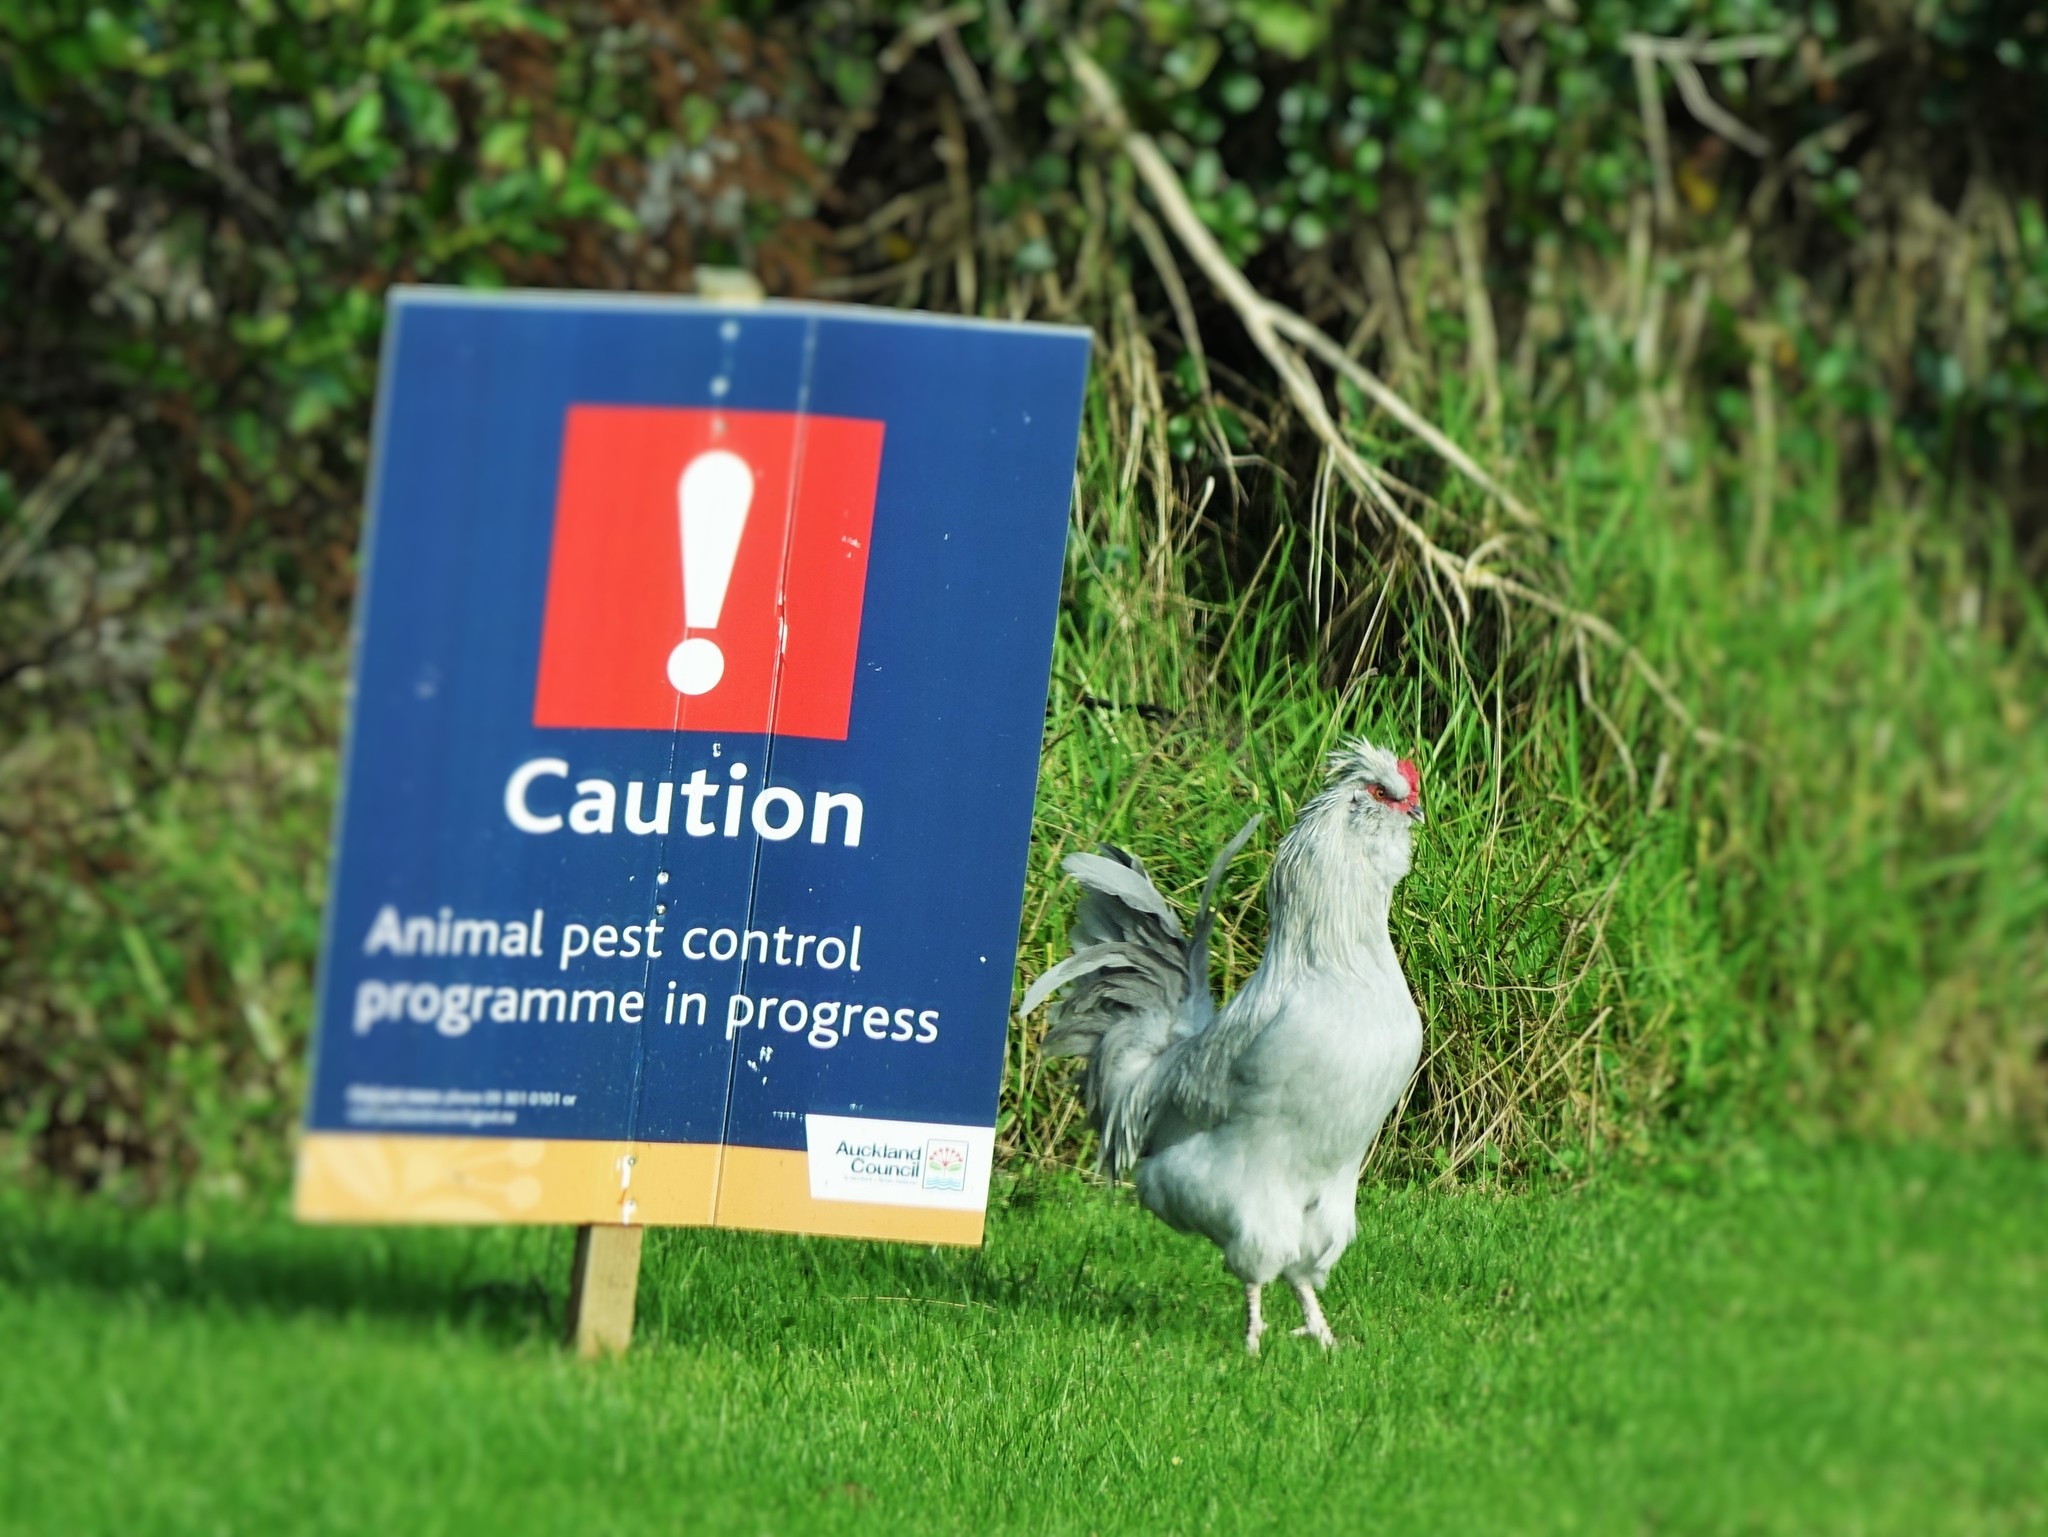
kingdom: Animalia
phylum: Chordata
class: Aves
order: Galliformes
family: Phasianidae
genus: Gallus
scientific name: Gallus gallus
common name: Red junglefowl
